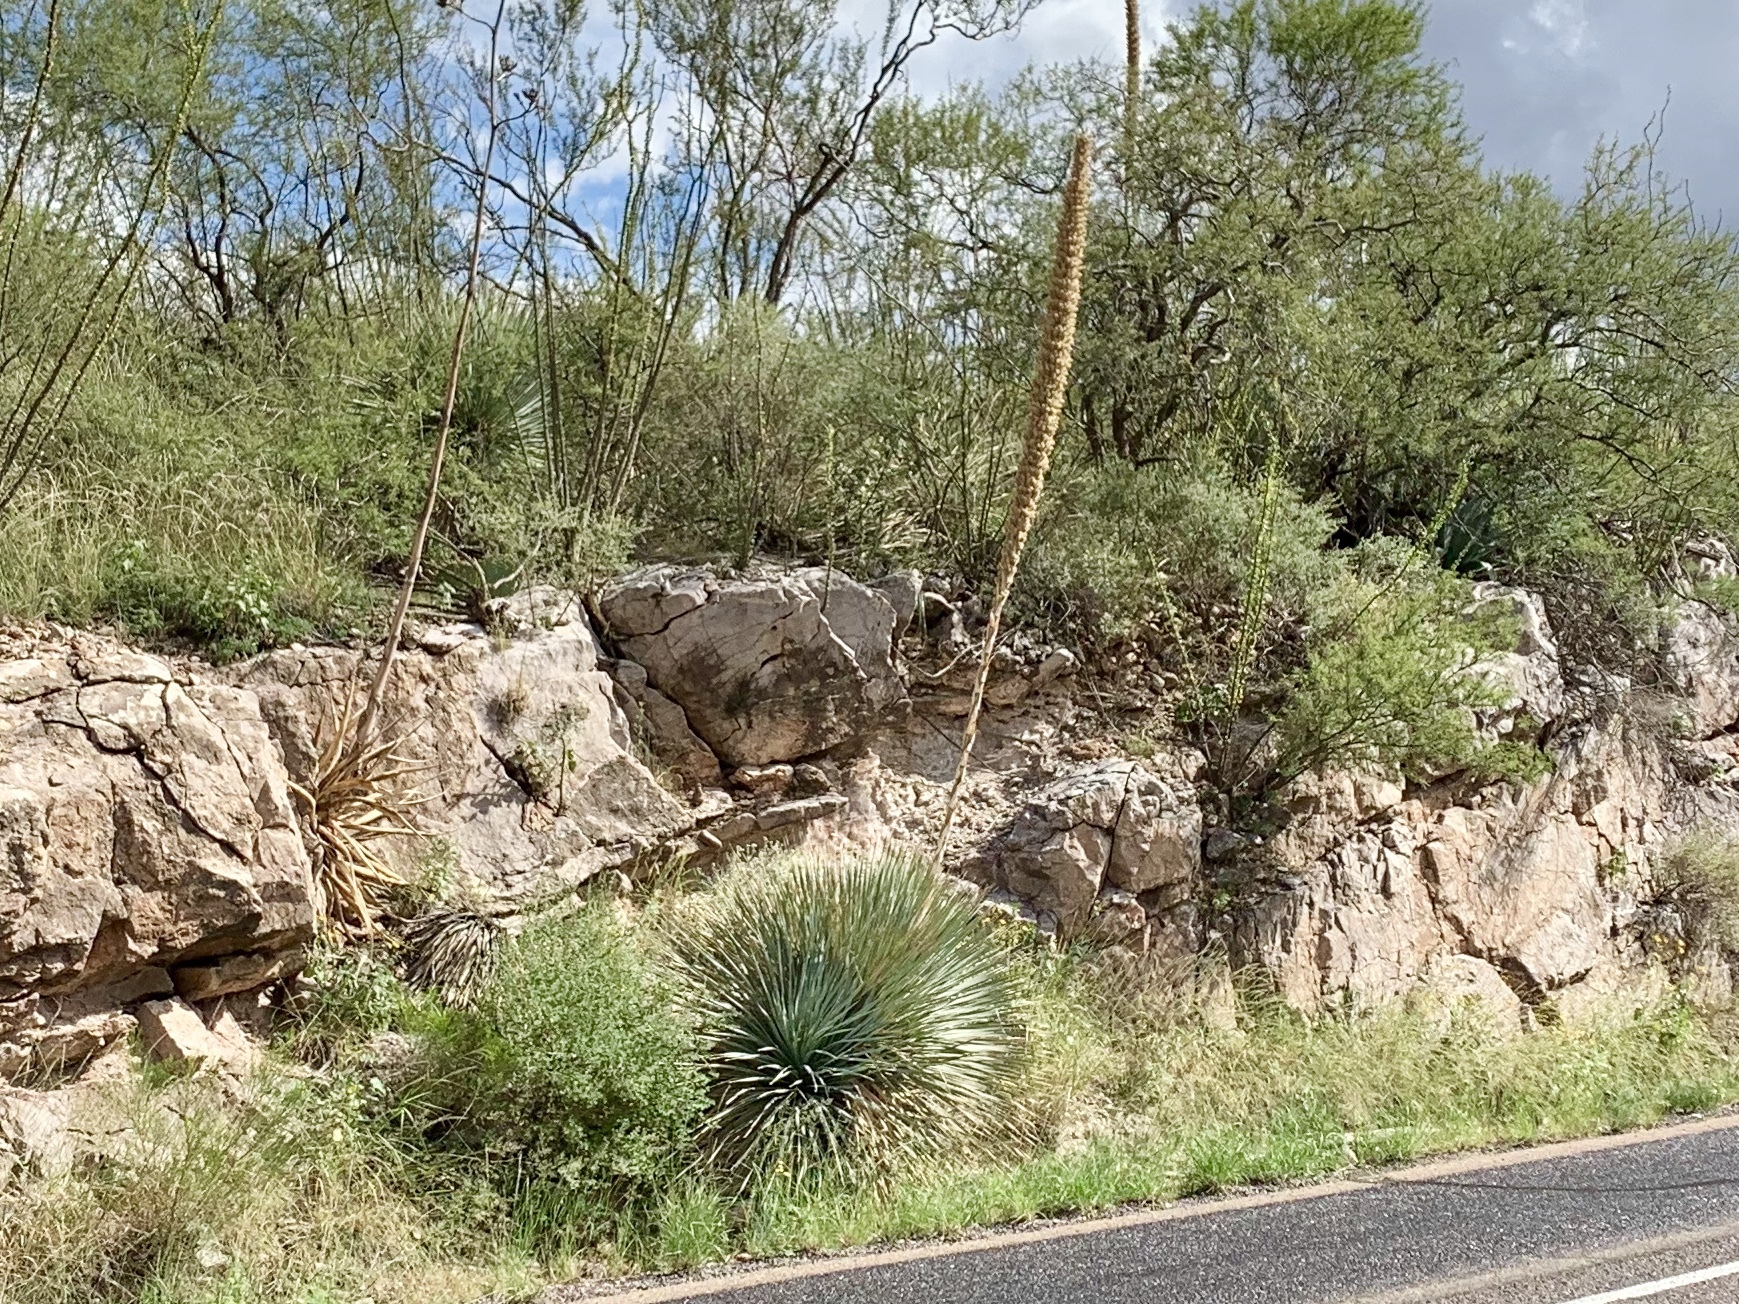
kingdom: Plantae
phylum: Tracheophyta
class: Liliopsida
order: Asparagales
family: Asparagaceae
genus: Dasylirion
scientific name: Dasylirion wheeleri
